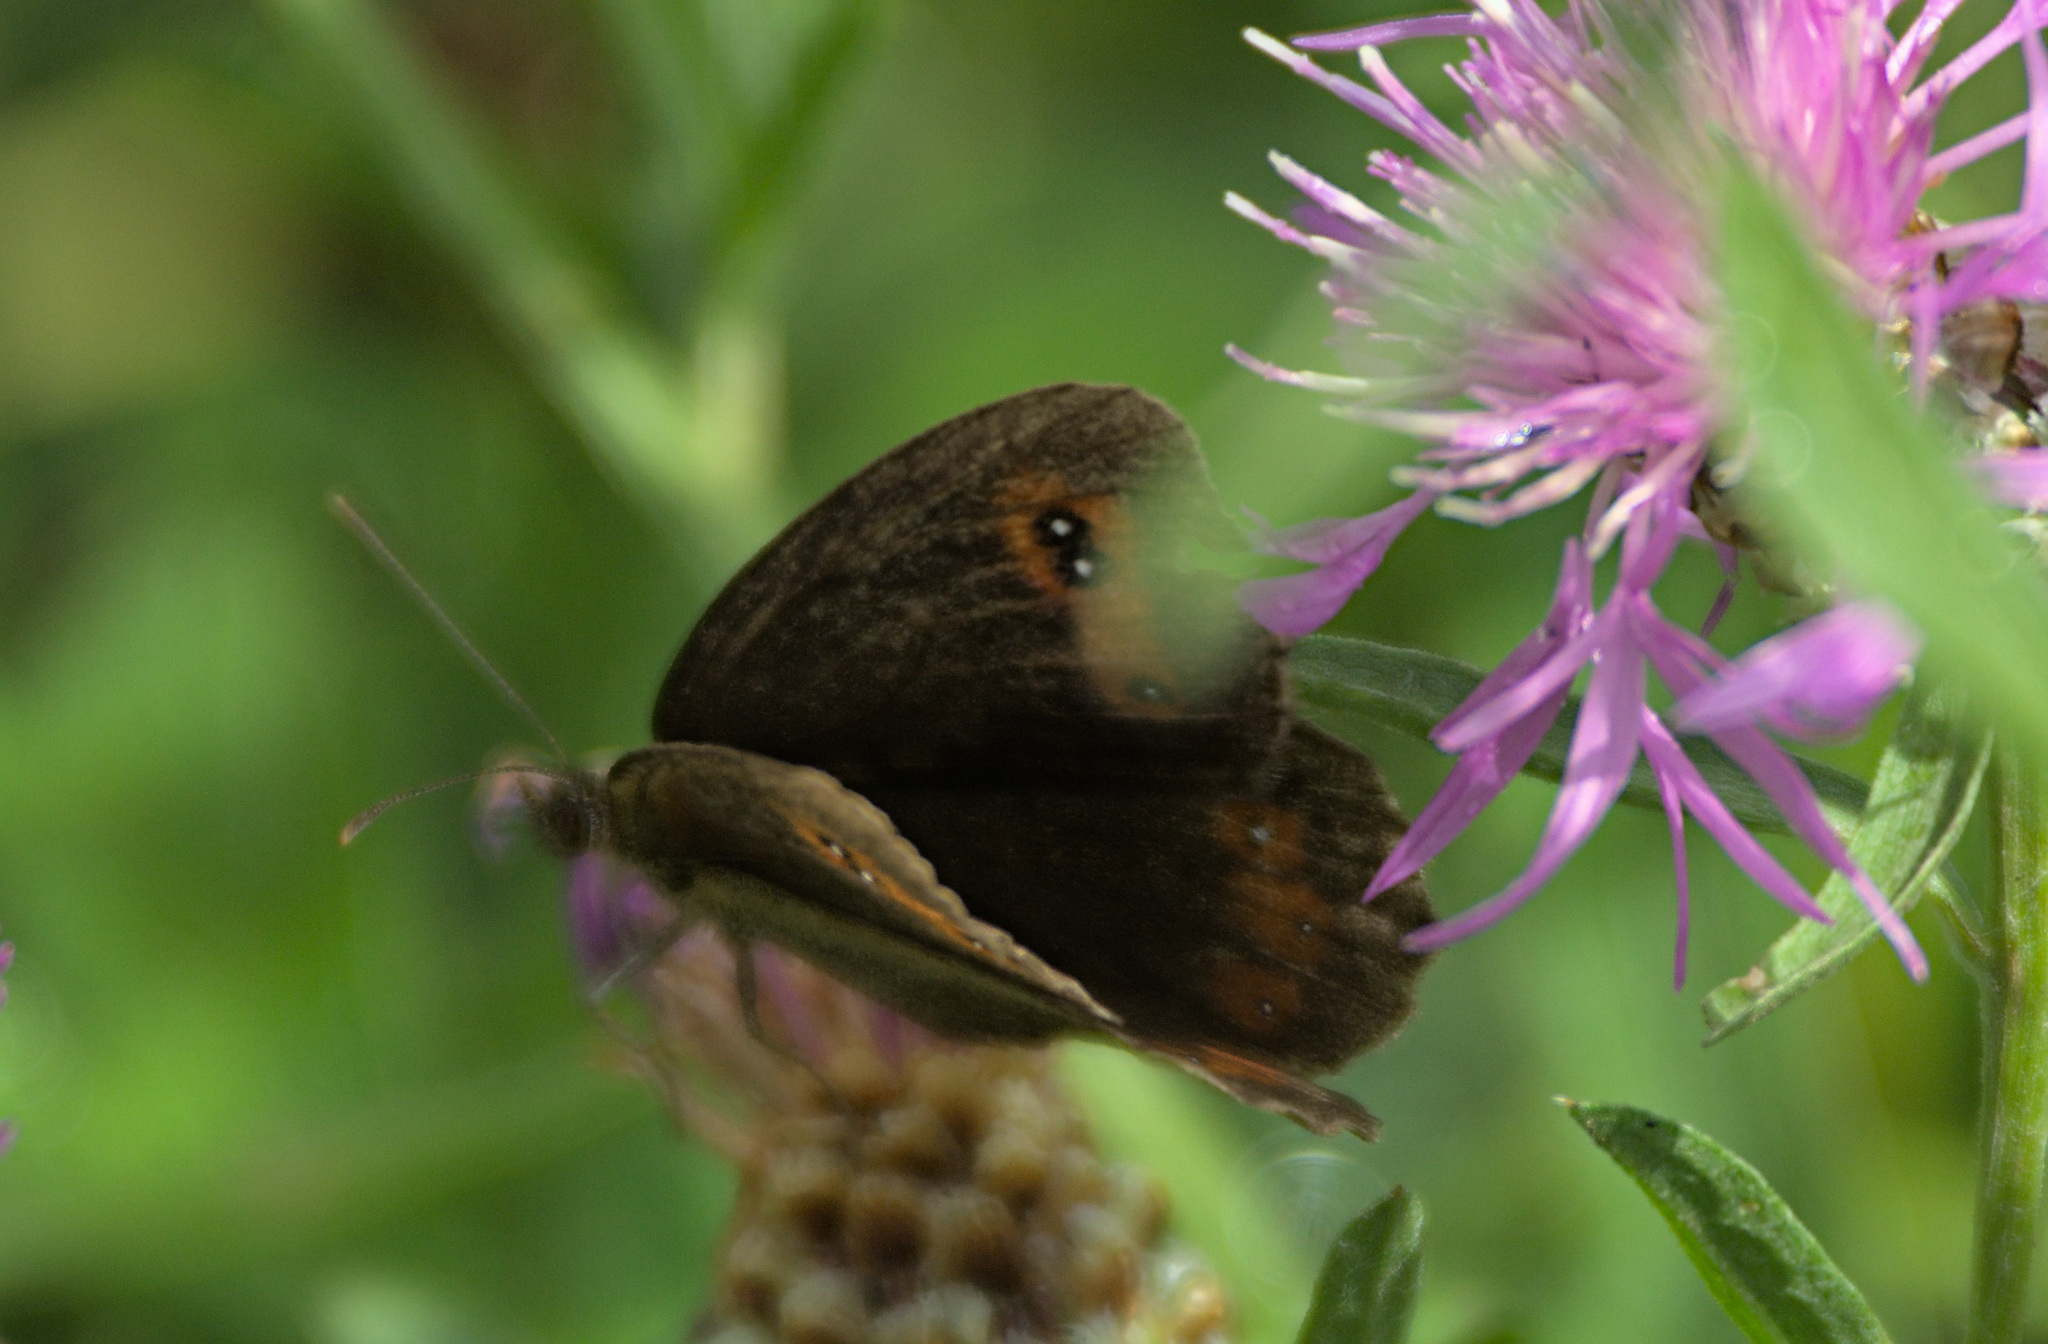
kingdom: Animalia
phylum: Arthropoda
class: Insecta
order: Lepidoptera
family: Nymphalidae
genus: Erebia
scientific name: Erebia aethiops
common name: Scotch argus
